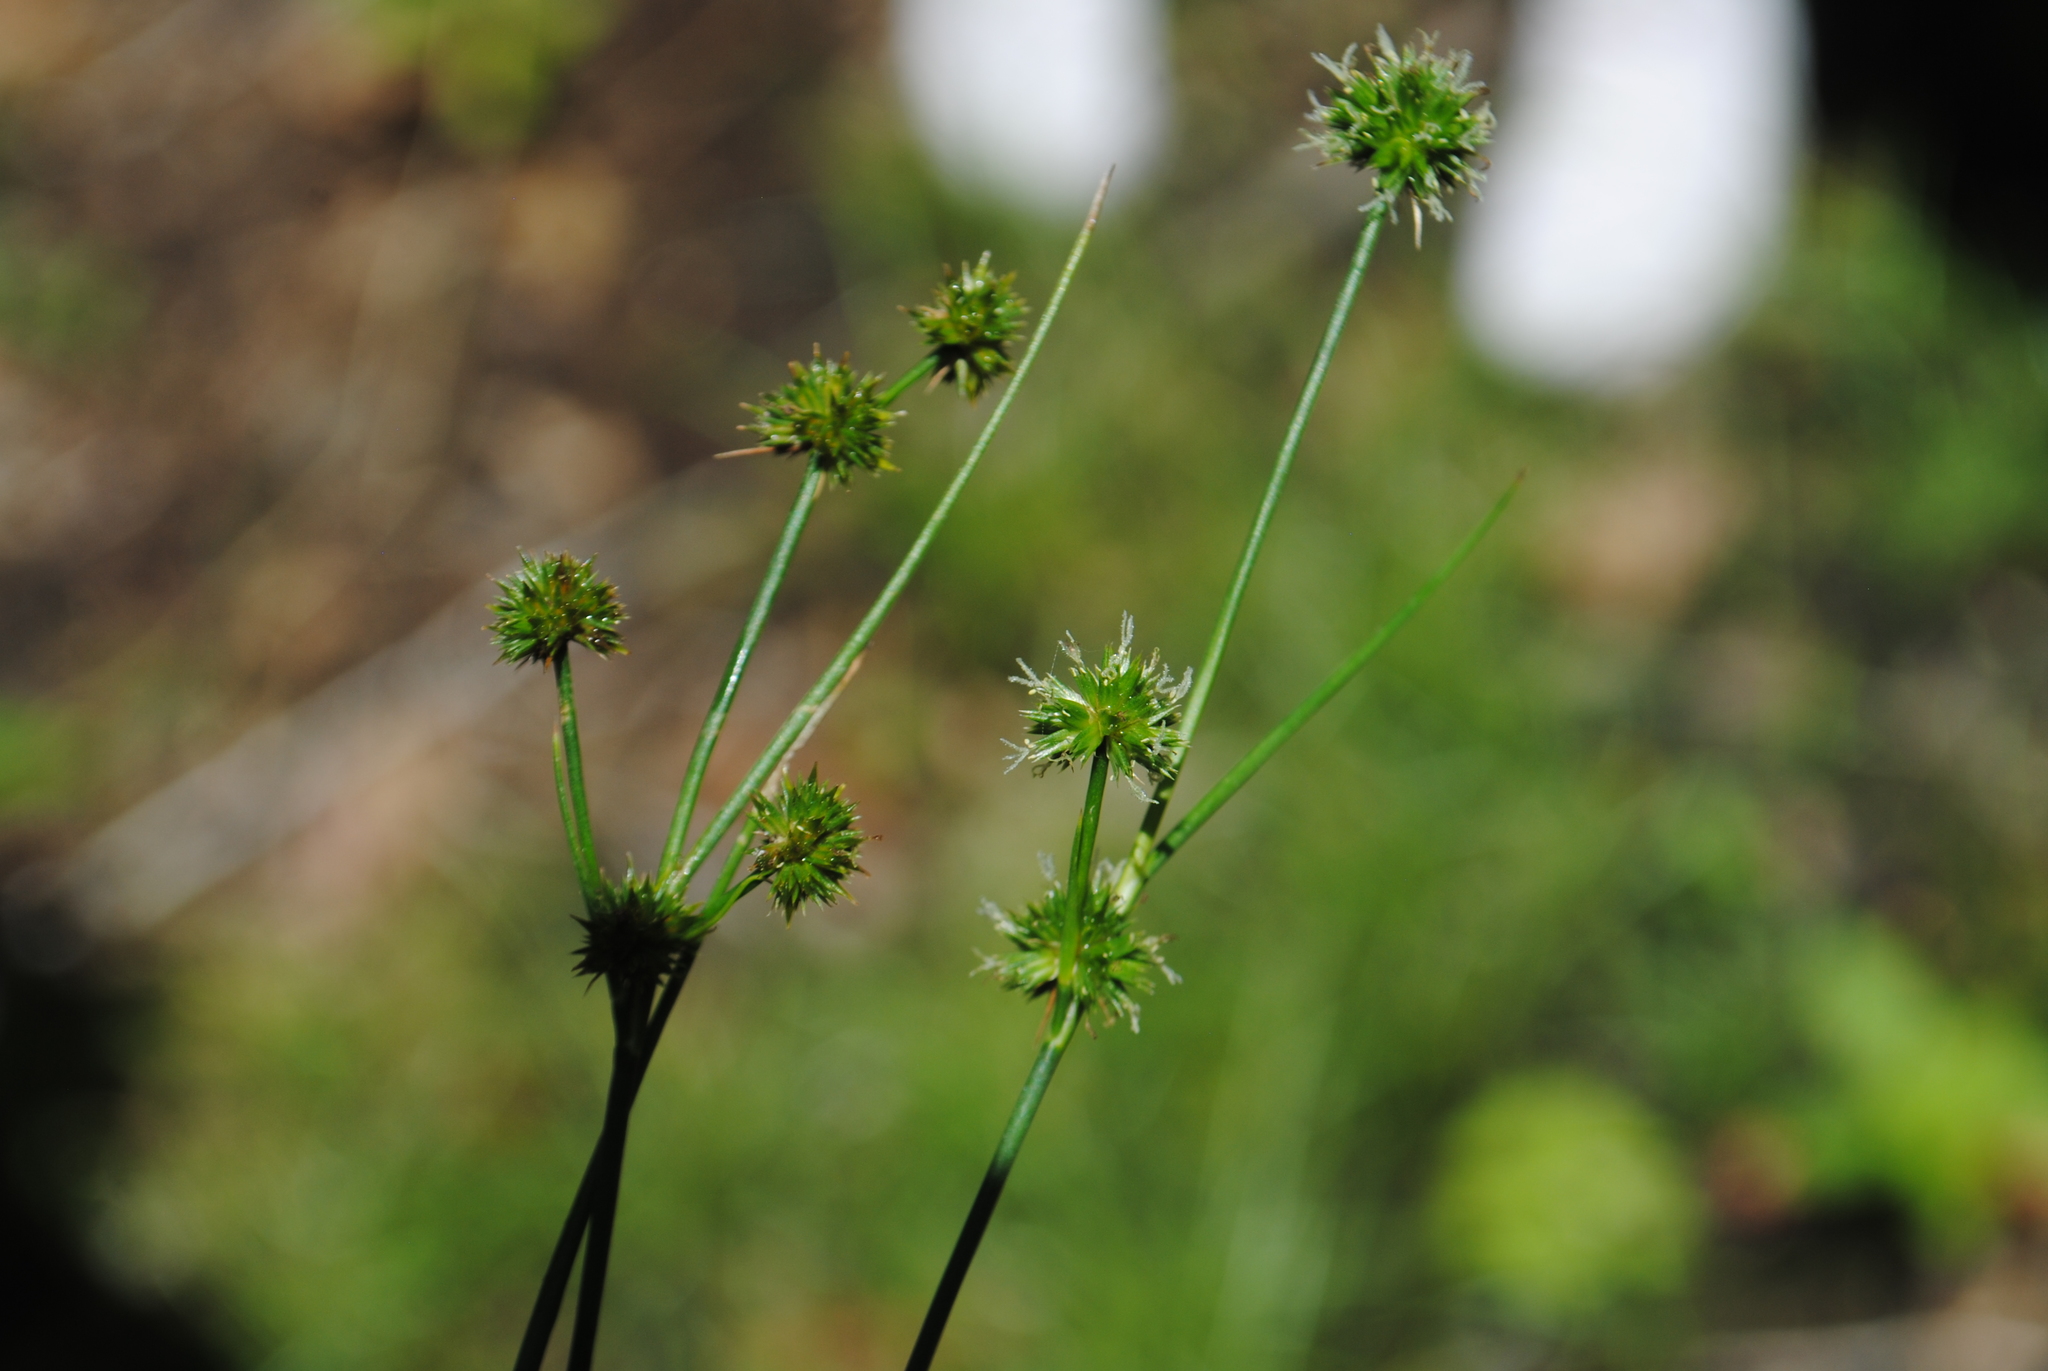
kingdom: Plantae
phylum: Tracheophyta
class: Liliopsida
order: Poales
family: Juncaceae
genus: Juncus
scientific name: Juncus scirpoides
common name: Needlepod rush
